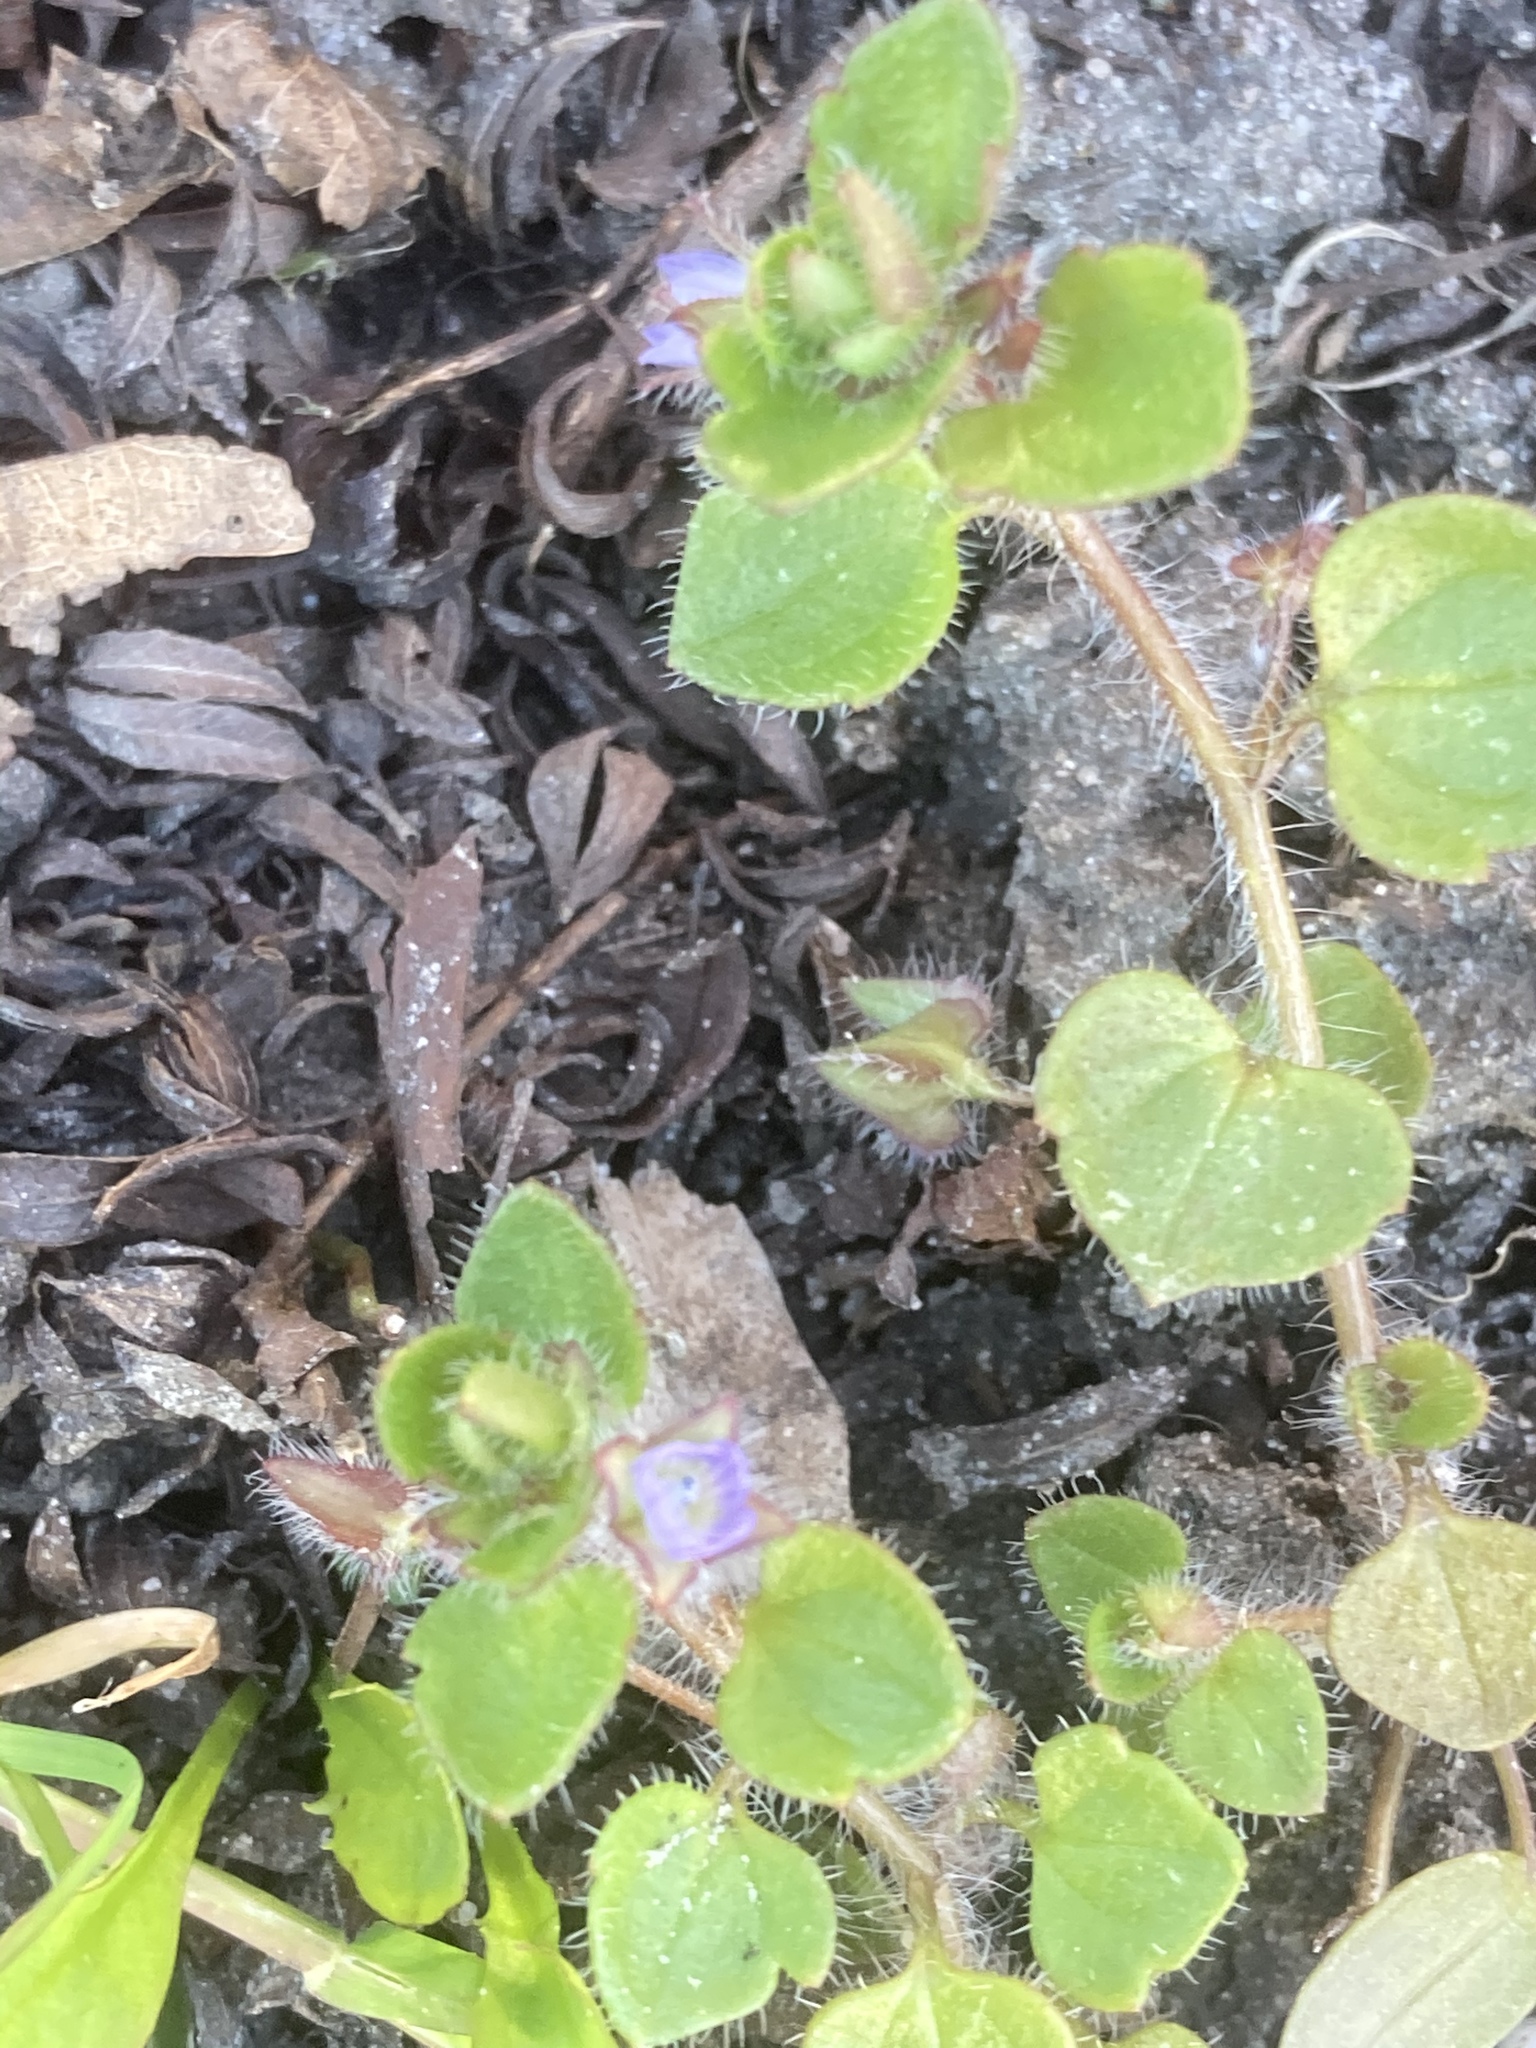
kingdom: Plantae
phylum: Tracheophyta
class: Magnoliopsida
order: Lamiales
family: Plantaginaceae
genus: Veronica
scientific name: Veronica sublobata
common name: False ivy-leaved speedwell
